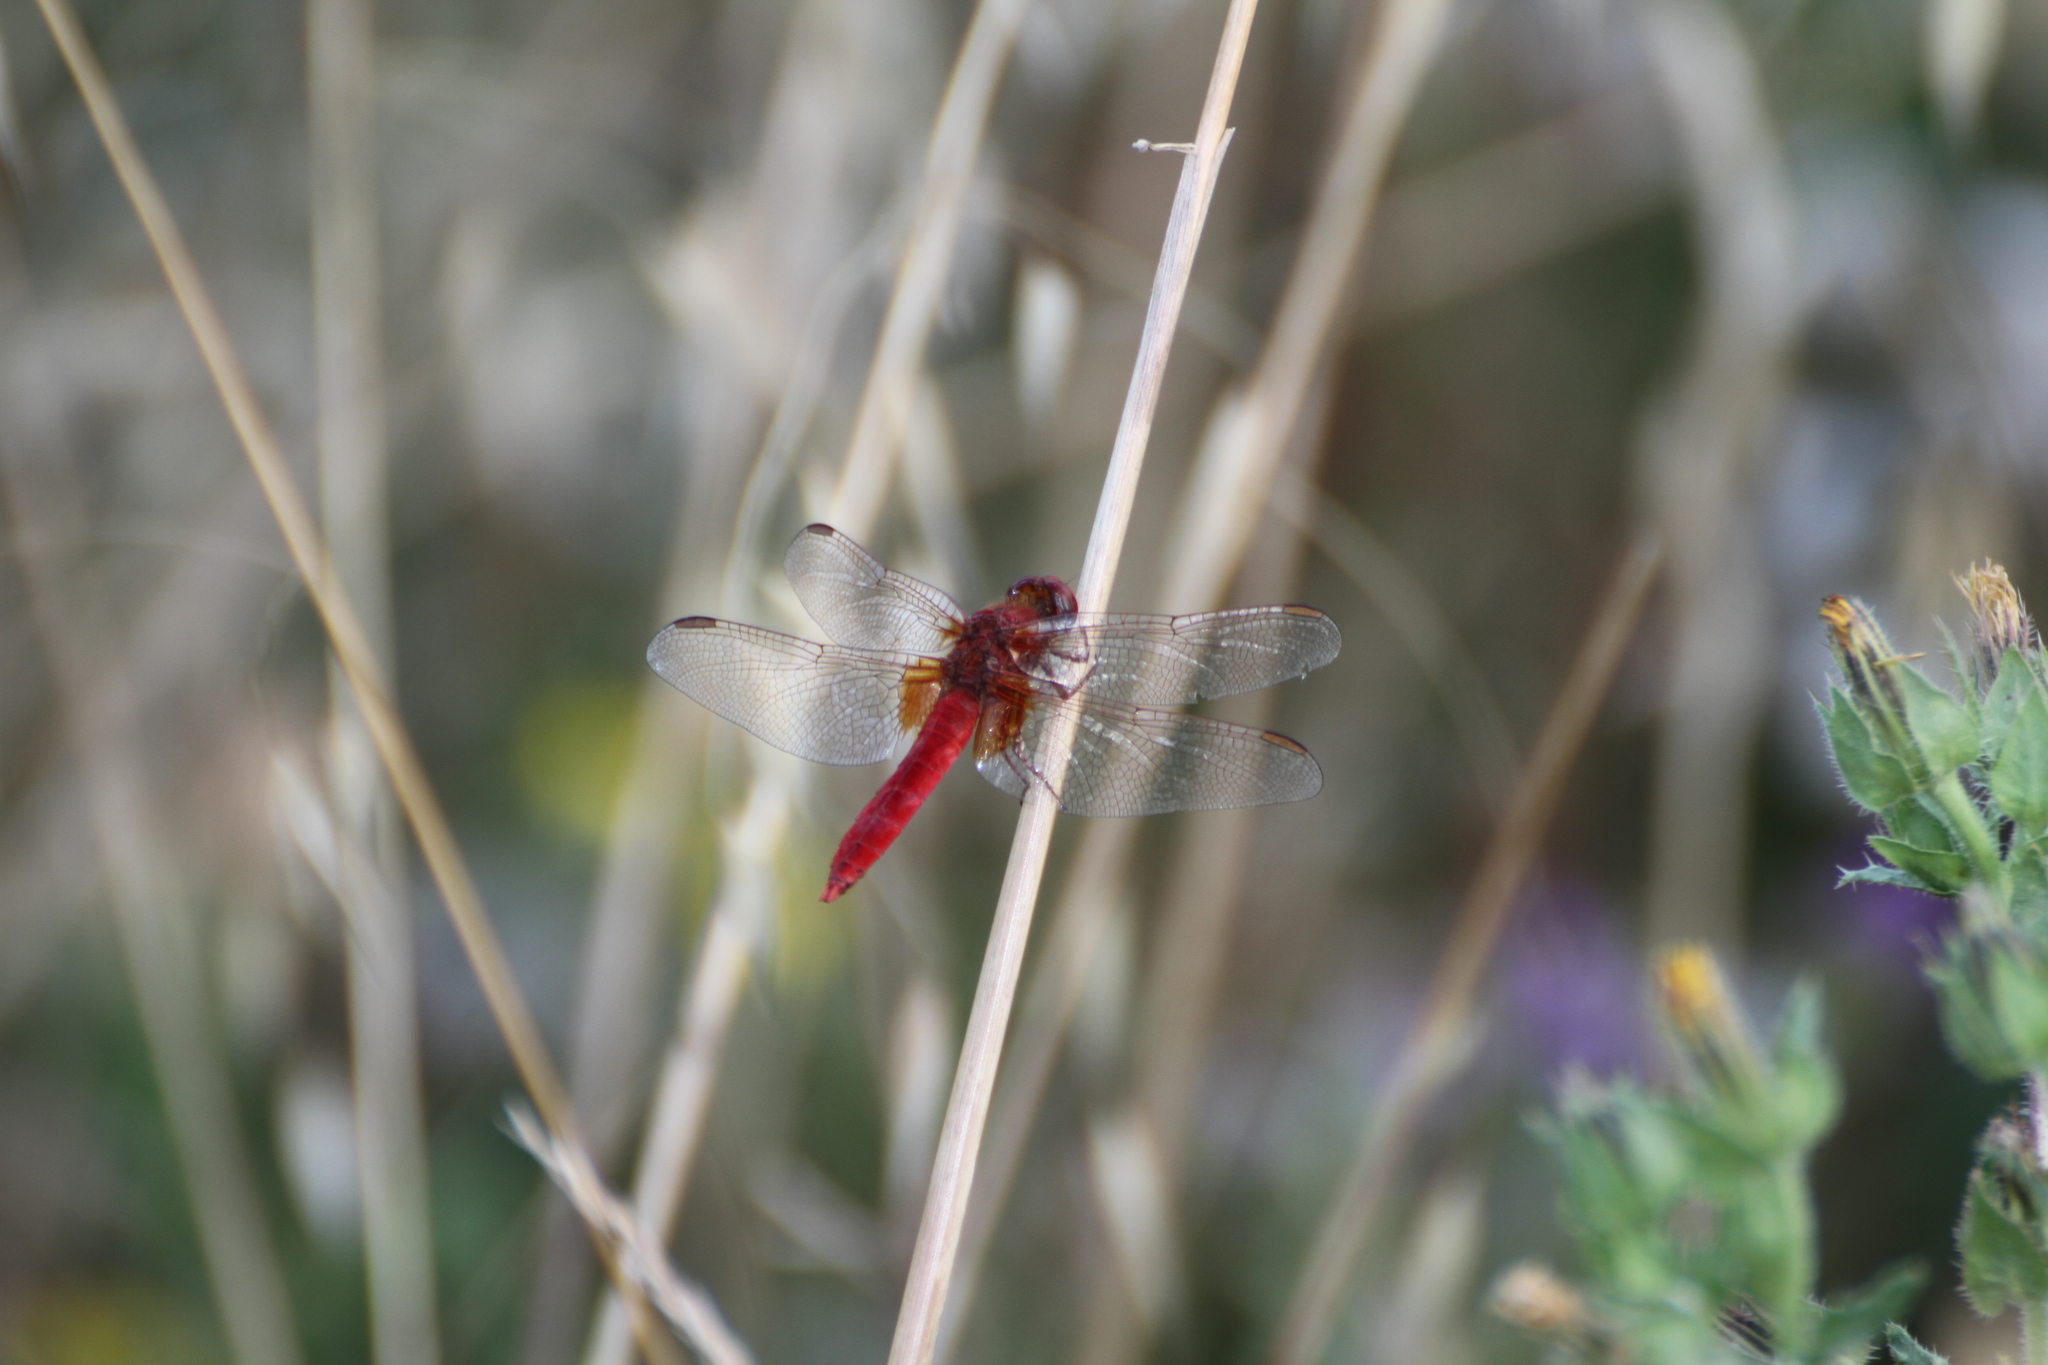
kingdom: Animalia
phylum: Arthropoda
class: Insecta
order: Odonata
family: Libellulidae
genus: Crocothemis
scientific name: Crocothemis erythraea
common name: Scarlet dragonfly
